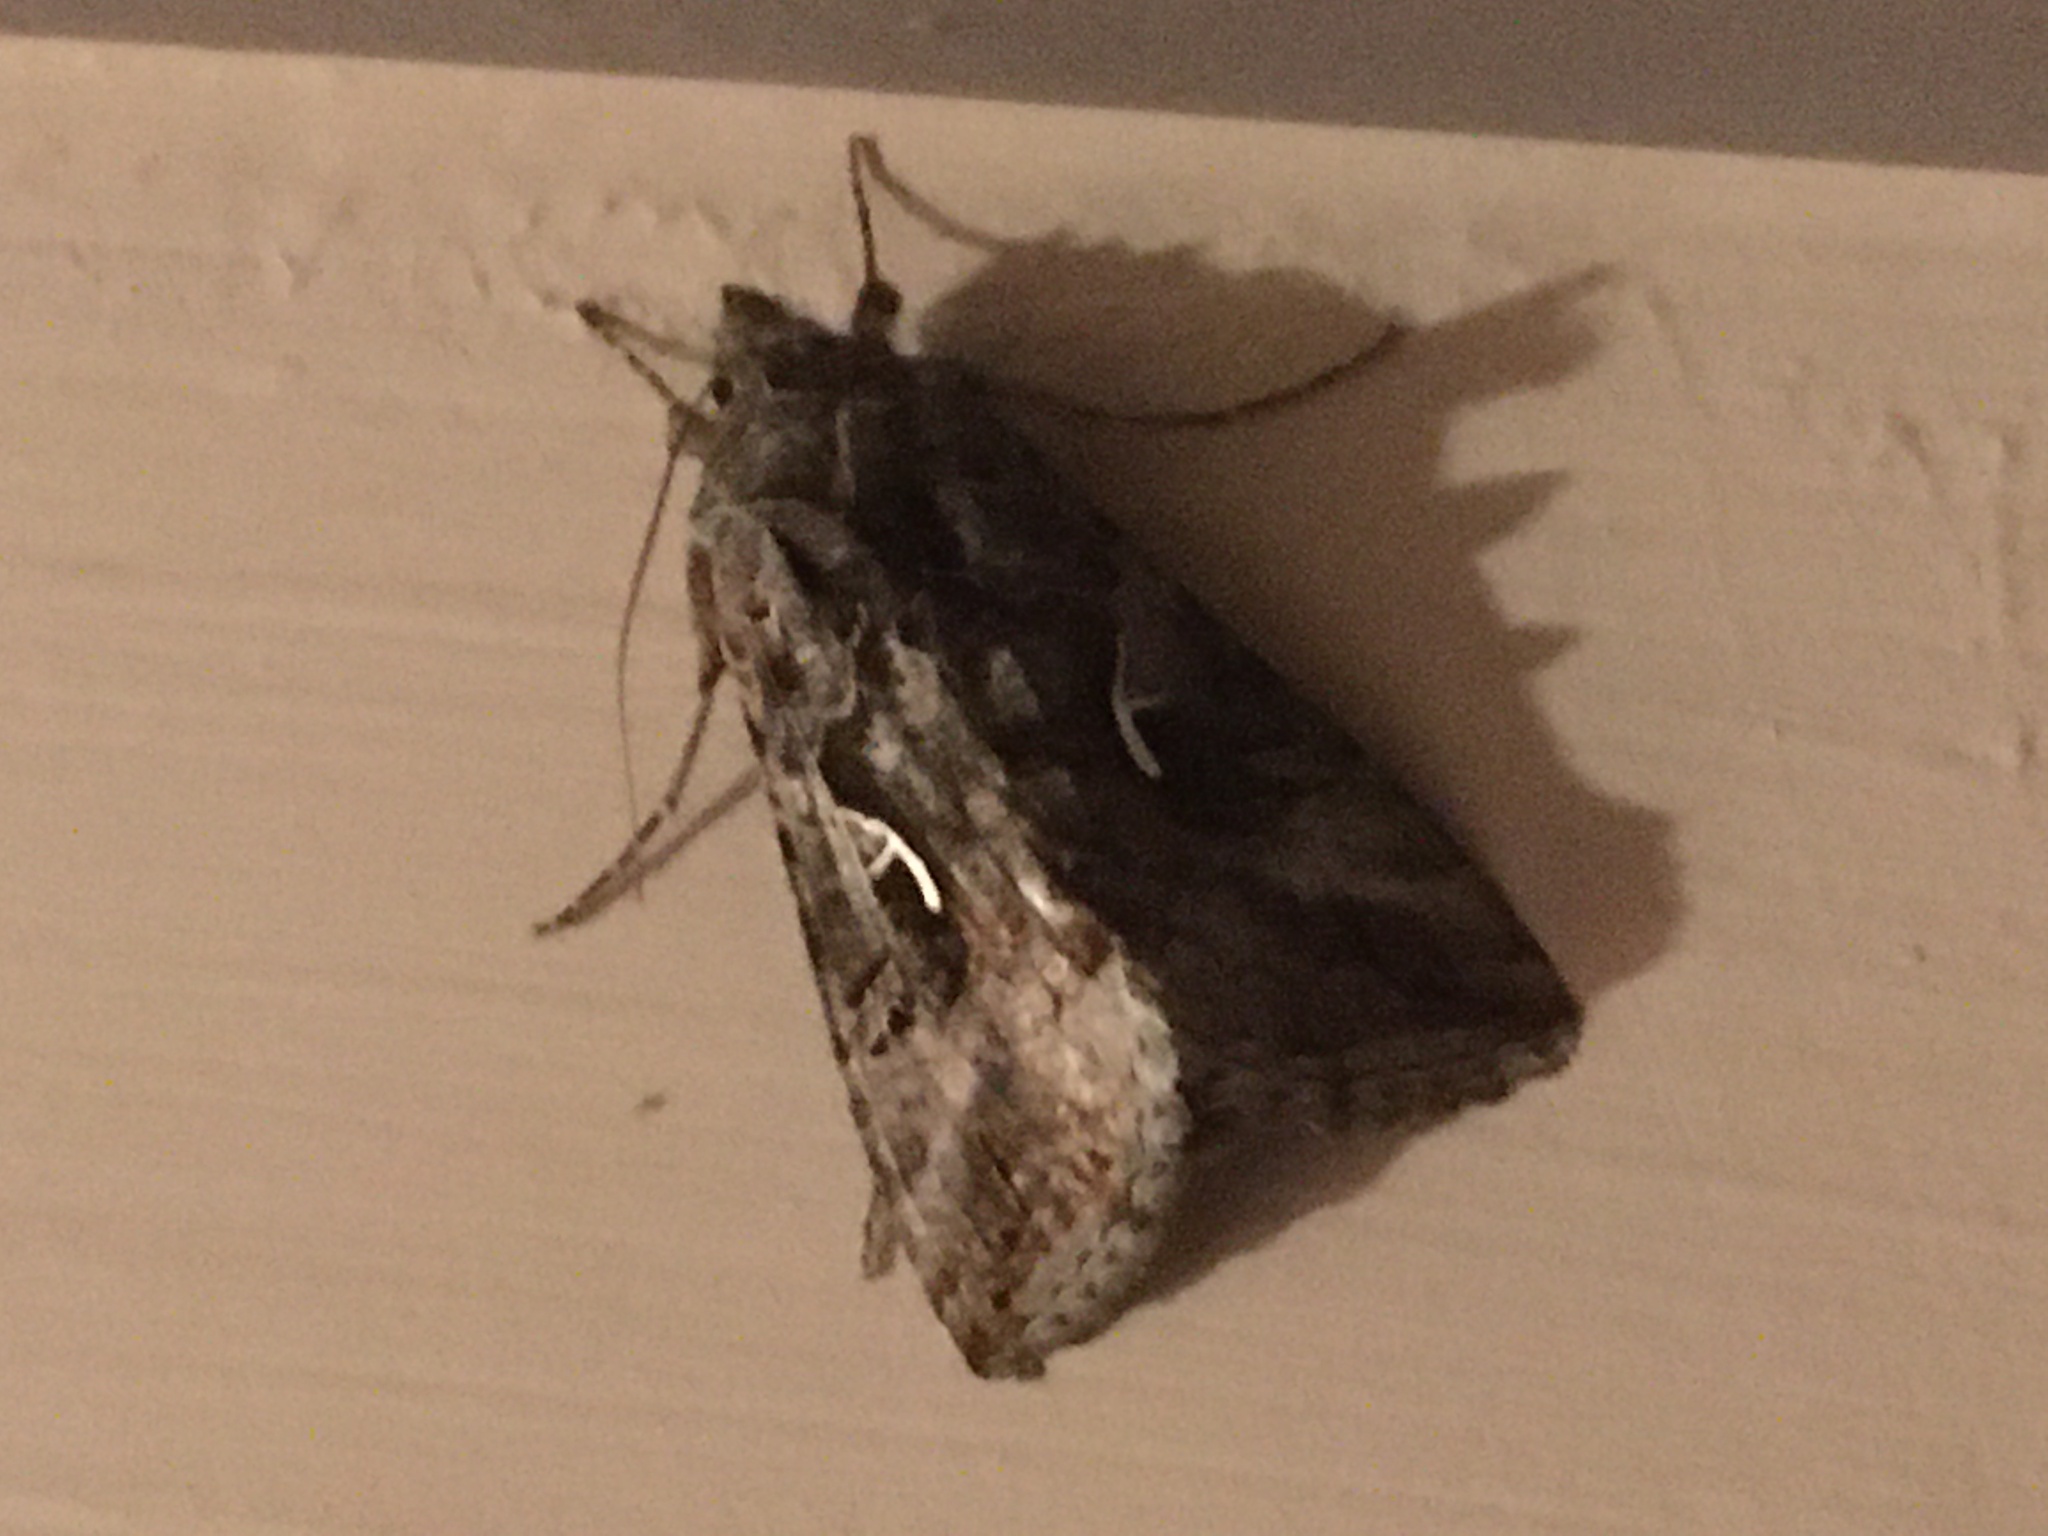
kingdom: Animalia
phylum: Arthropoda
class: Insecta
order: Lepidoptera
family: Noctuidae
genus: Autographa
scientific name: Autographa gamma
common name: Silver y
